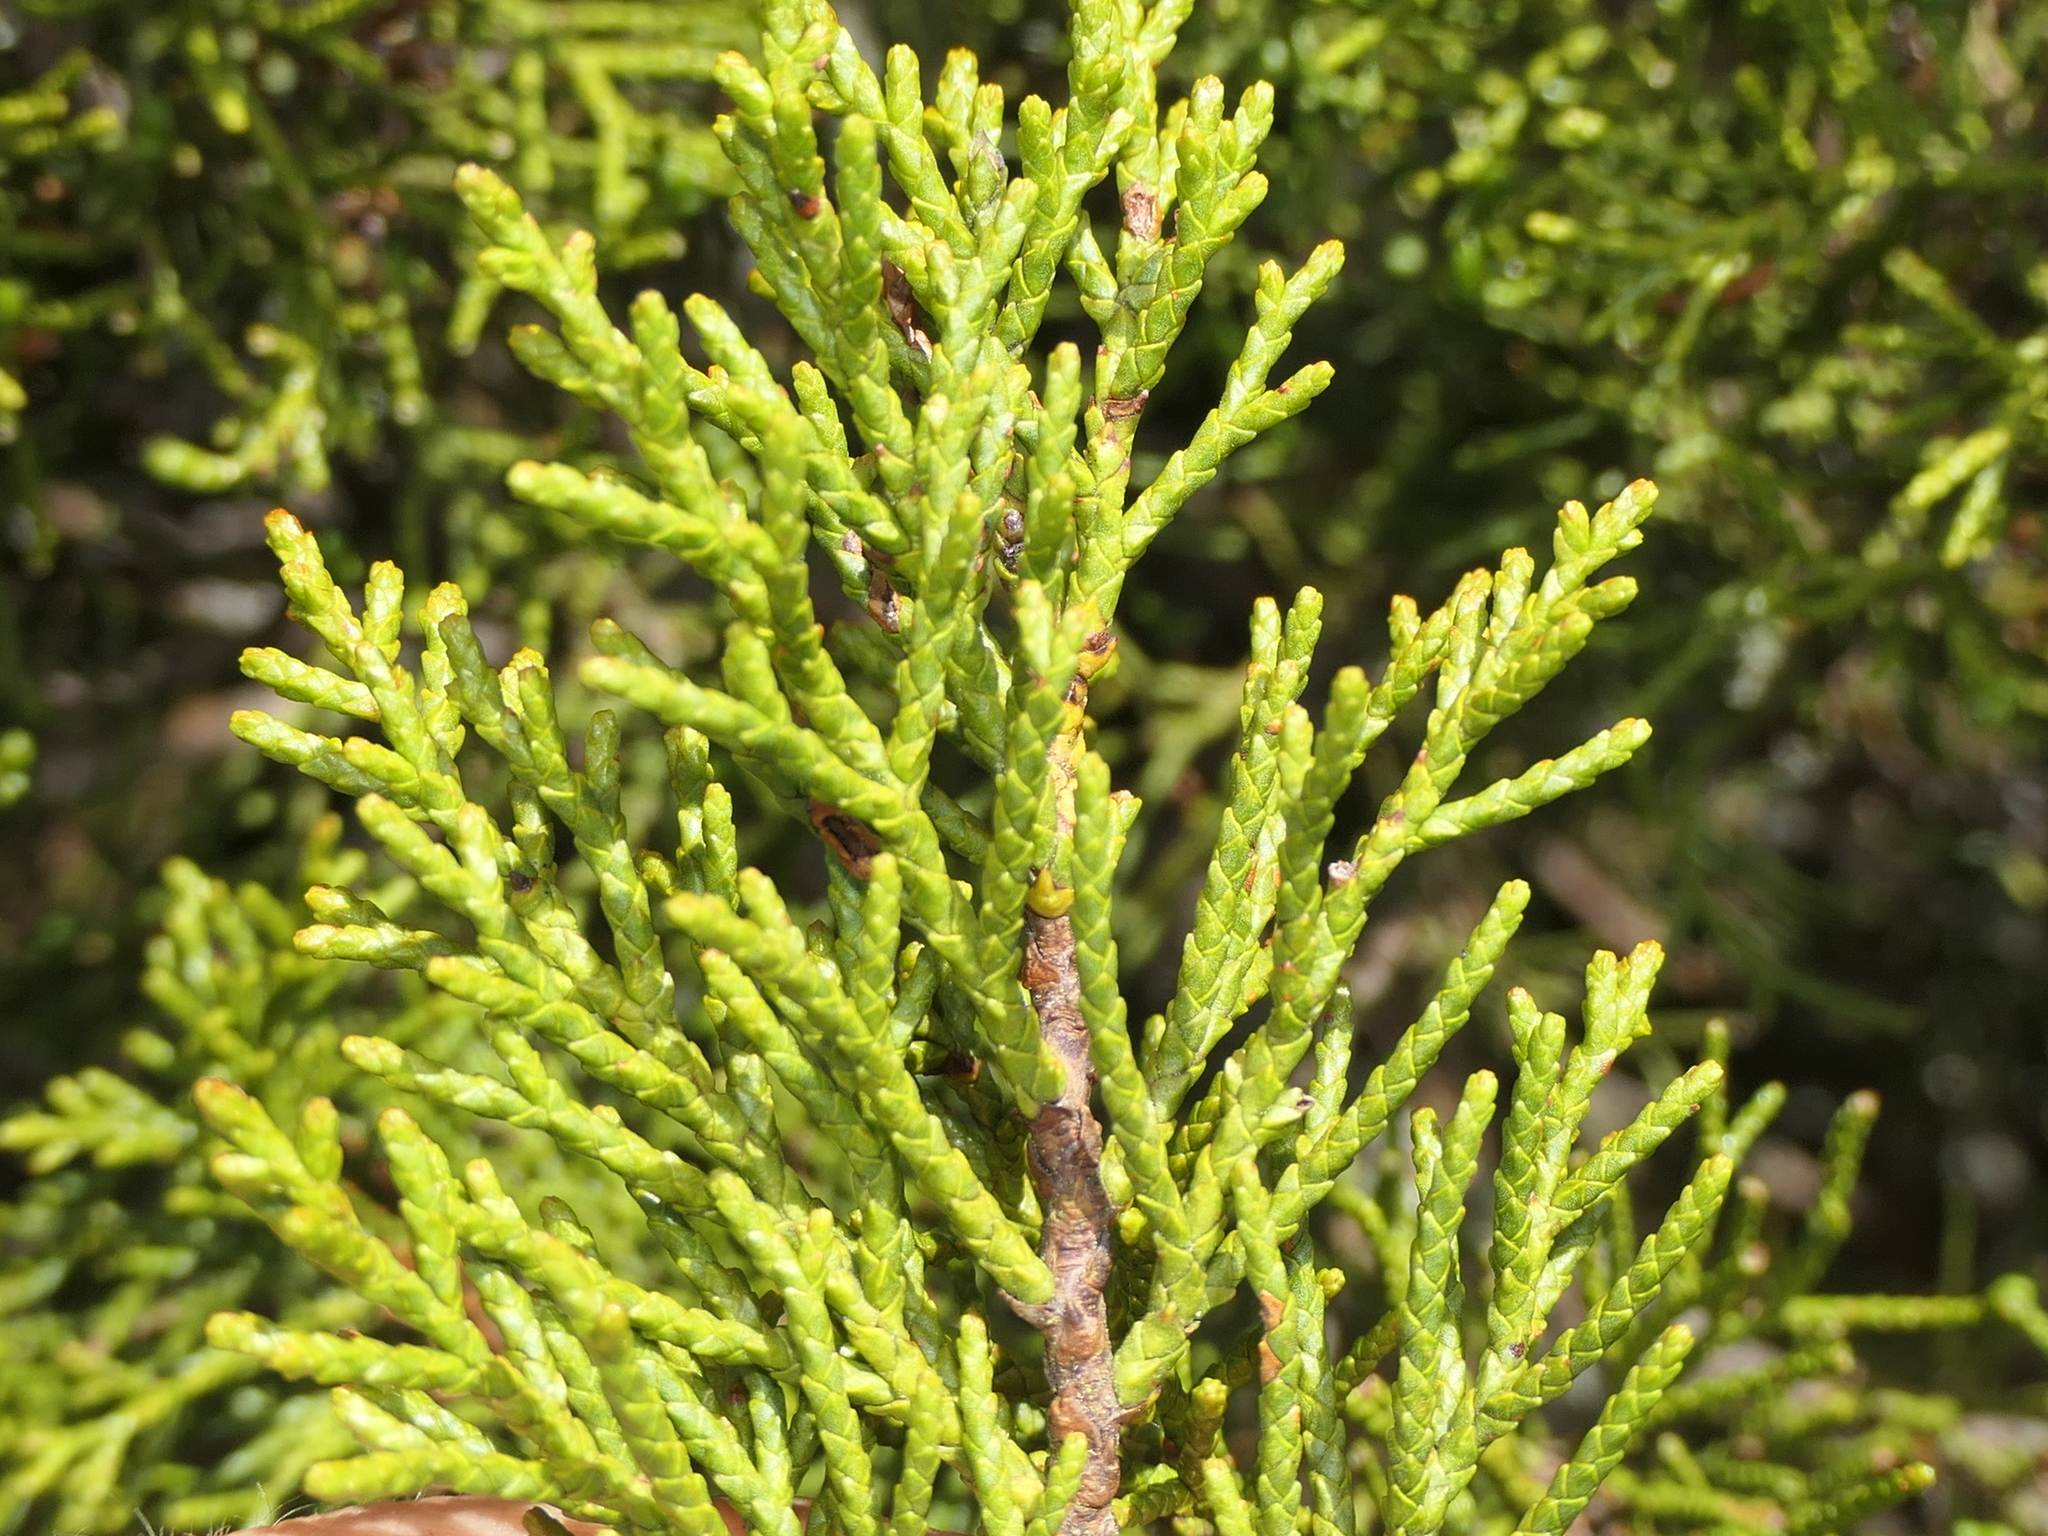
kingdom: Plantae
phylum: Tracheophyta
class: Pinopsida
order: Pinales
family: Podocarpaceae
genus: Halocarpus
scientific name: Halocarpus bidwillii
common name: Bog pine
